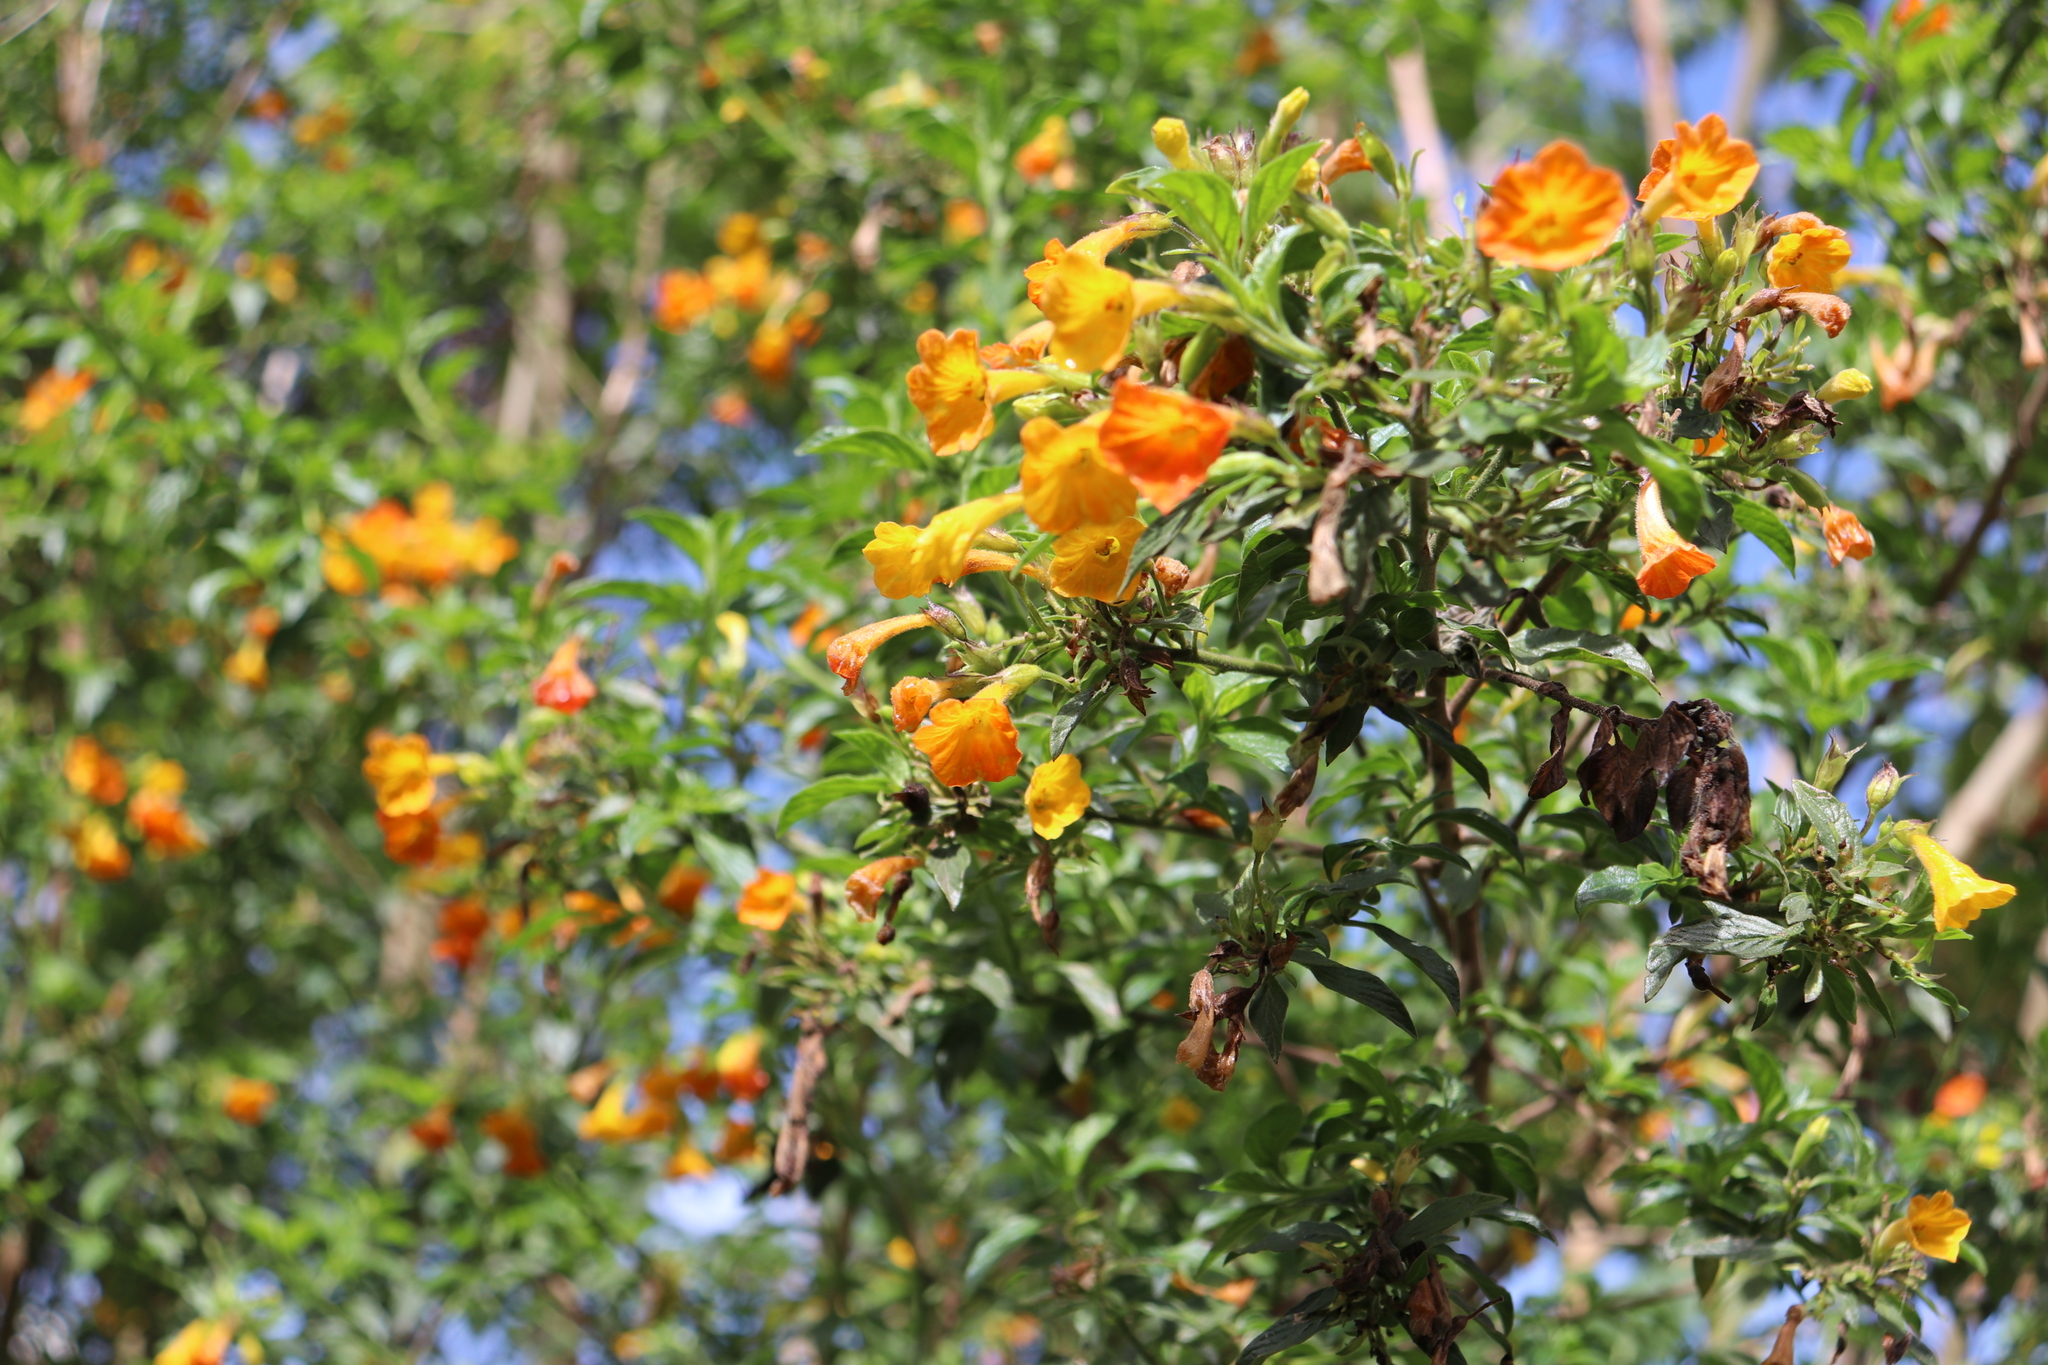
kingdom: Plantae
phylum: Tracheophyta
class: Magnoliopsida
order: Solanales
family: Solanaceae
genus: Streptosolen
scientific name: Streptosolen jamesonii
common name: Marmalade bush
